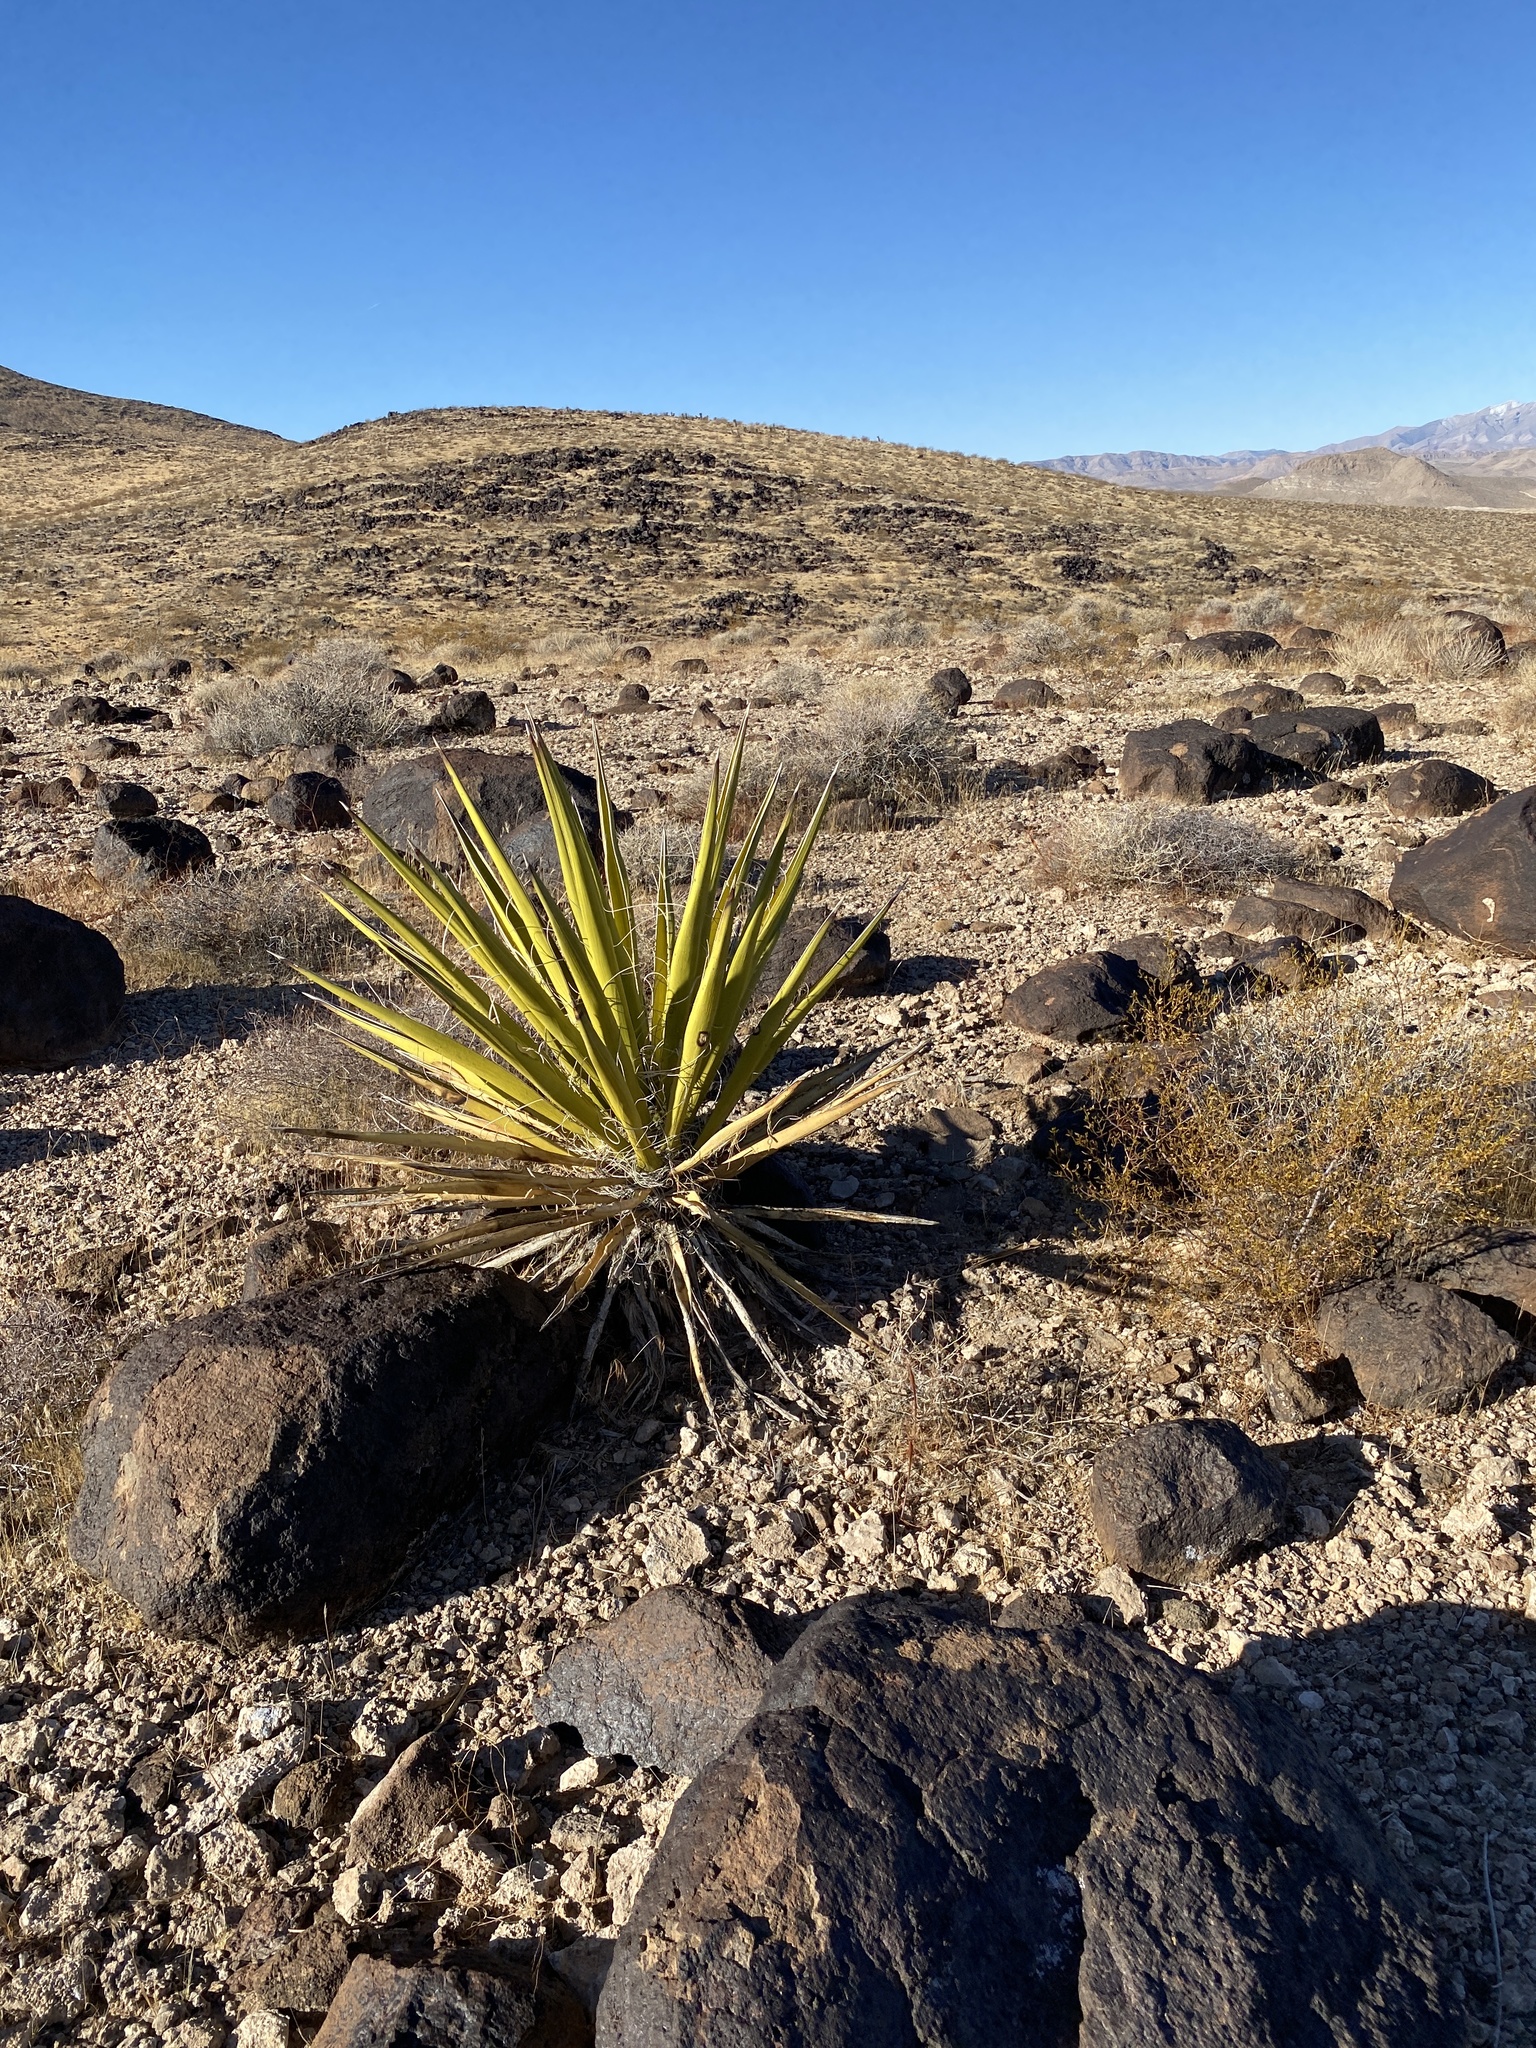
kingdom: Plantae
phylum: Tracheophyta
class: Liliopsida
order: Asparagales
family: Asparagaceae
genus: Yucca
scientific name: Yucca schidigera
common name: Mojave yucca
